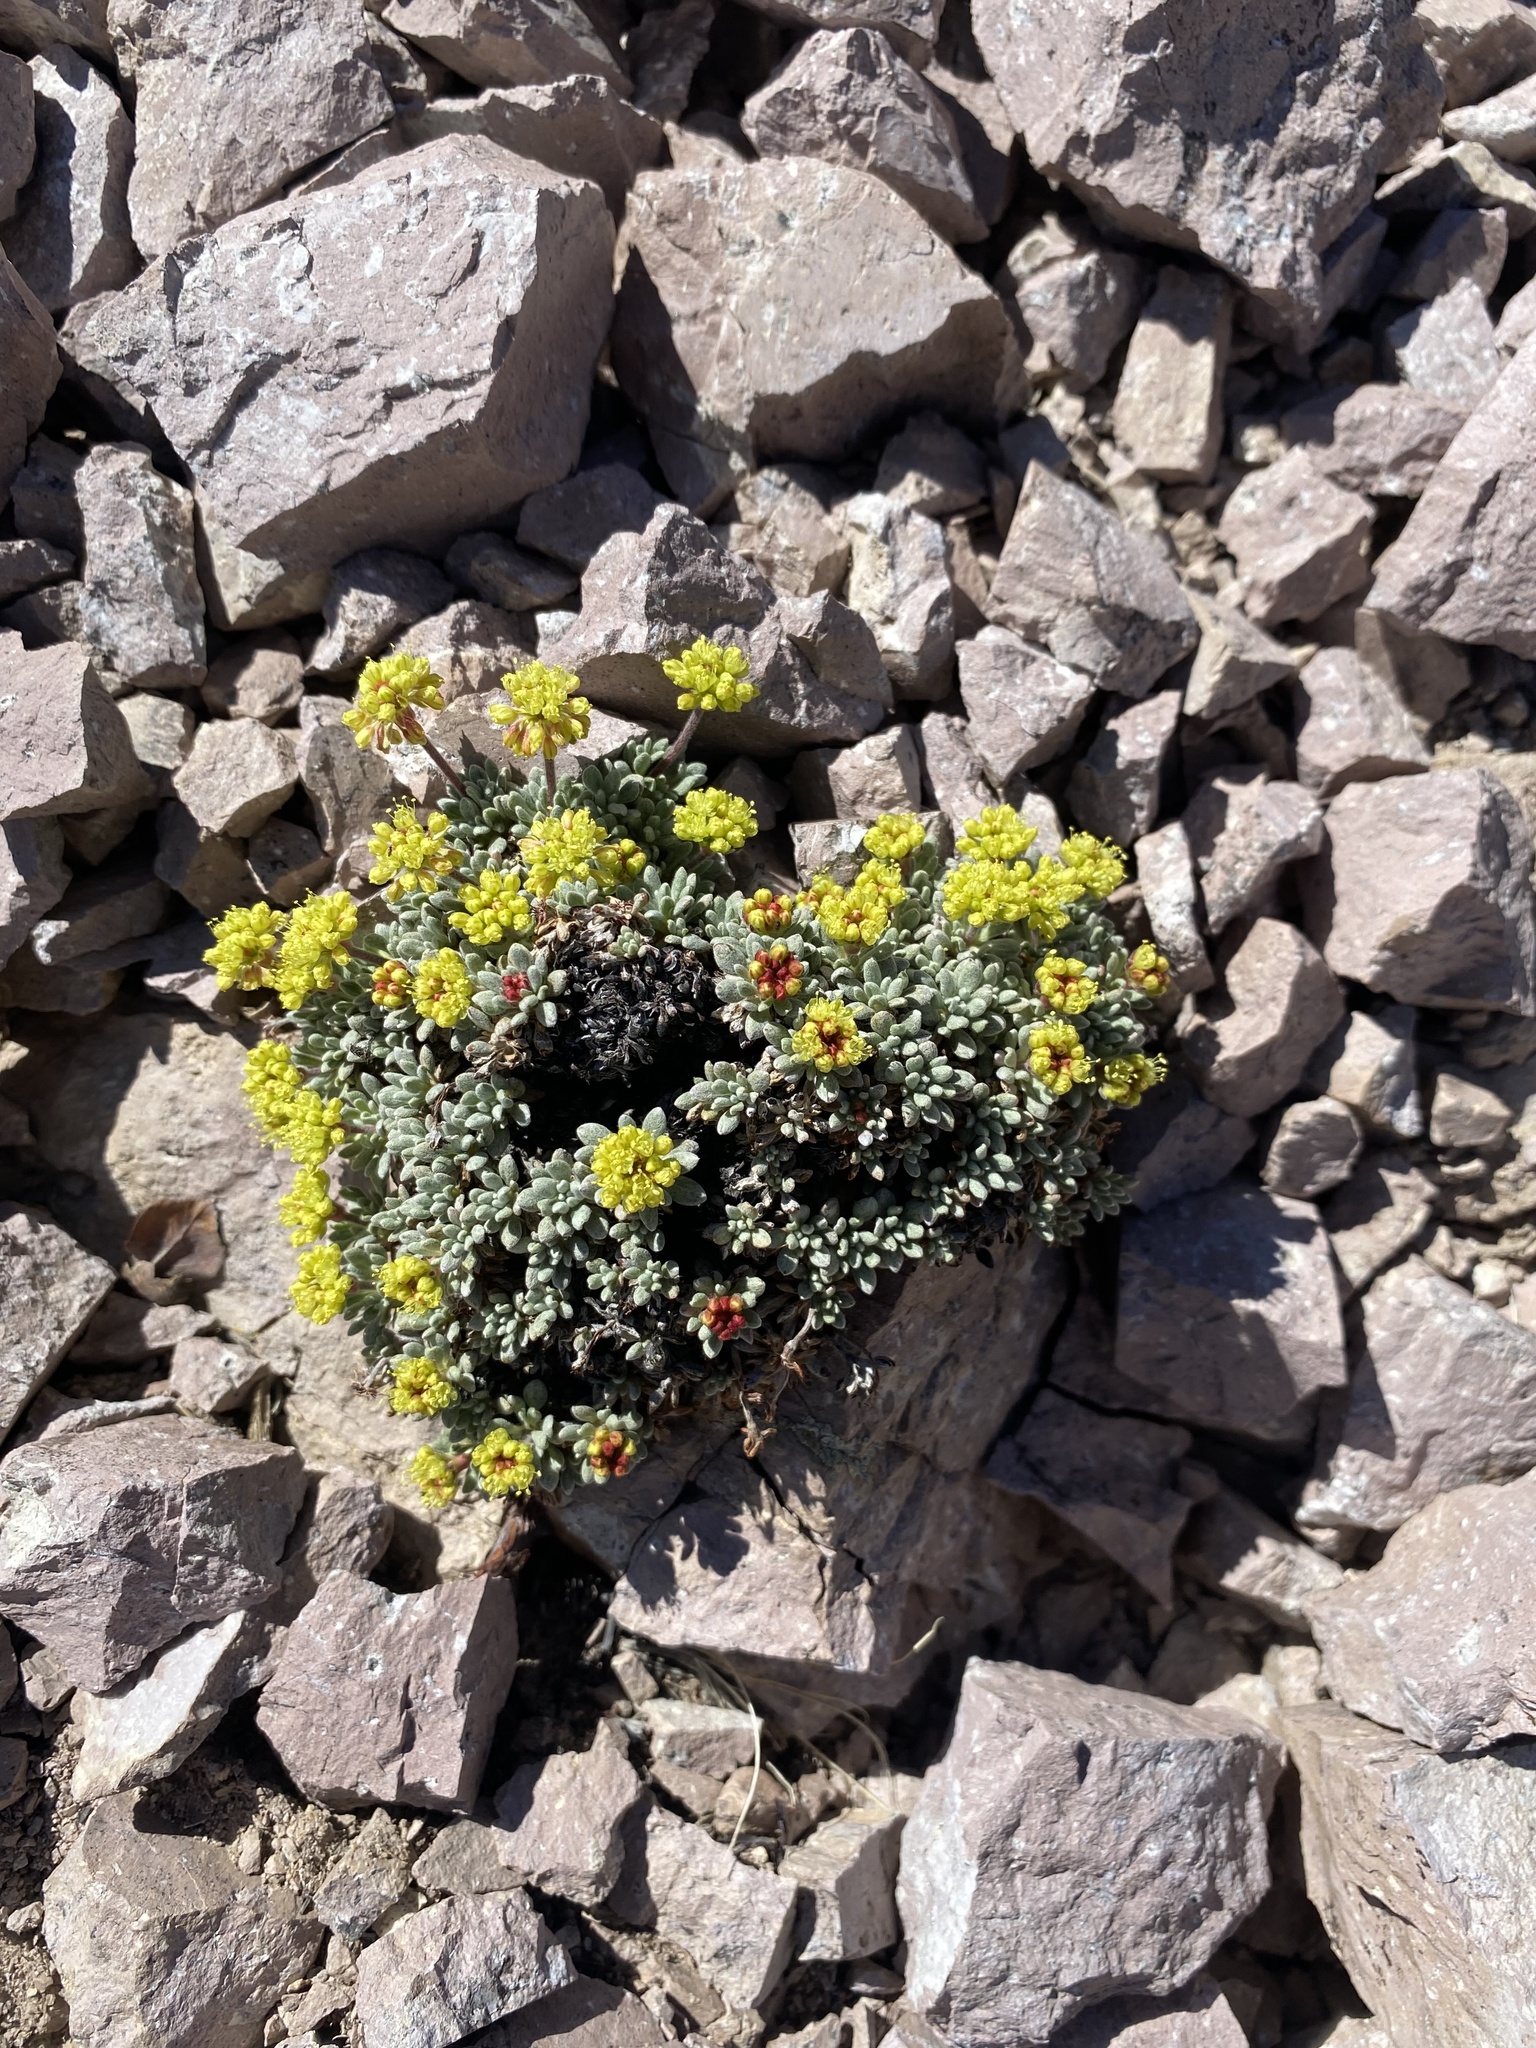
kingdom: Plantae
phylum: Tracheophyta
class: Magnoliopsida
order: Caryophyllales
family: Polygonaceae
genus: Eriogonum
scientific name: Eriogonum caespitosum
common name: Matted wild buckwheat
